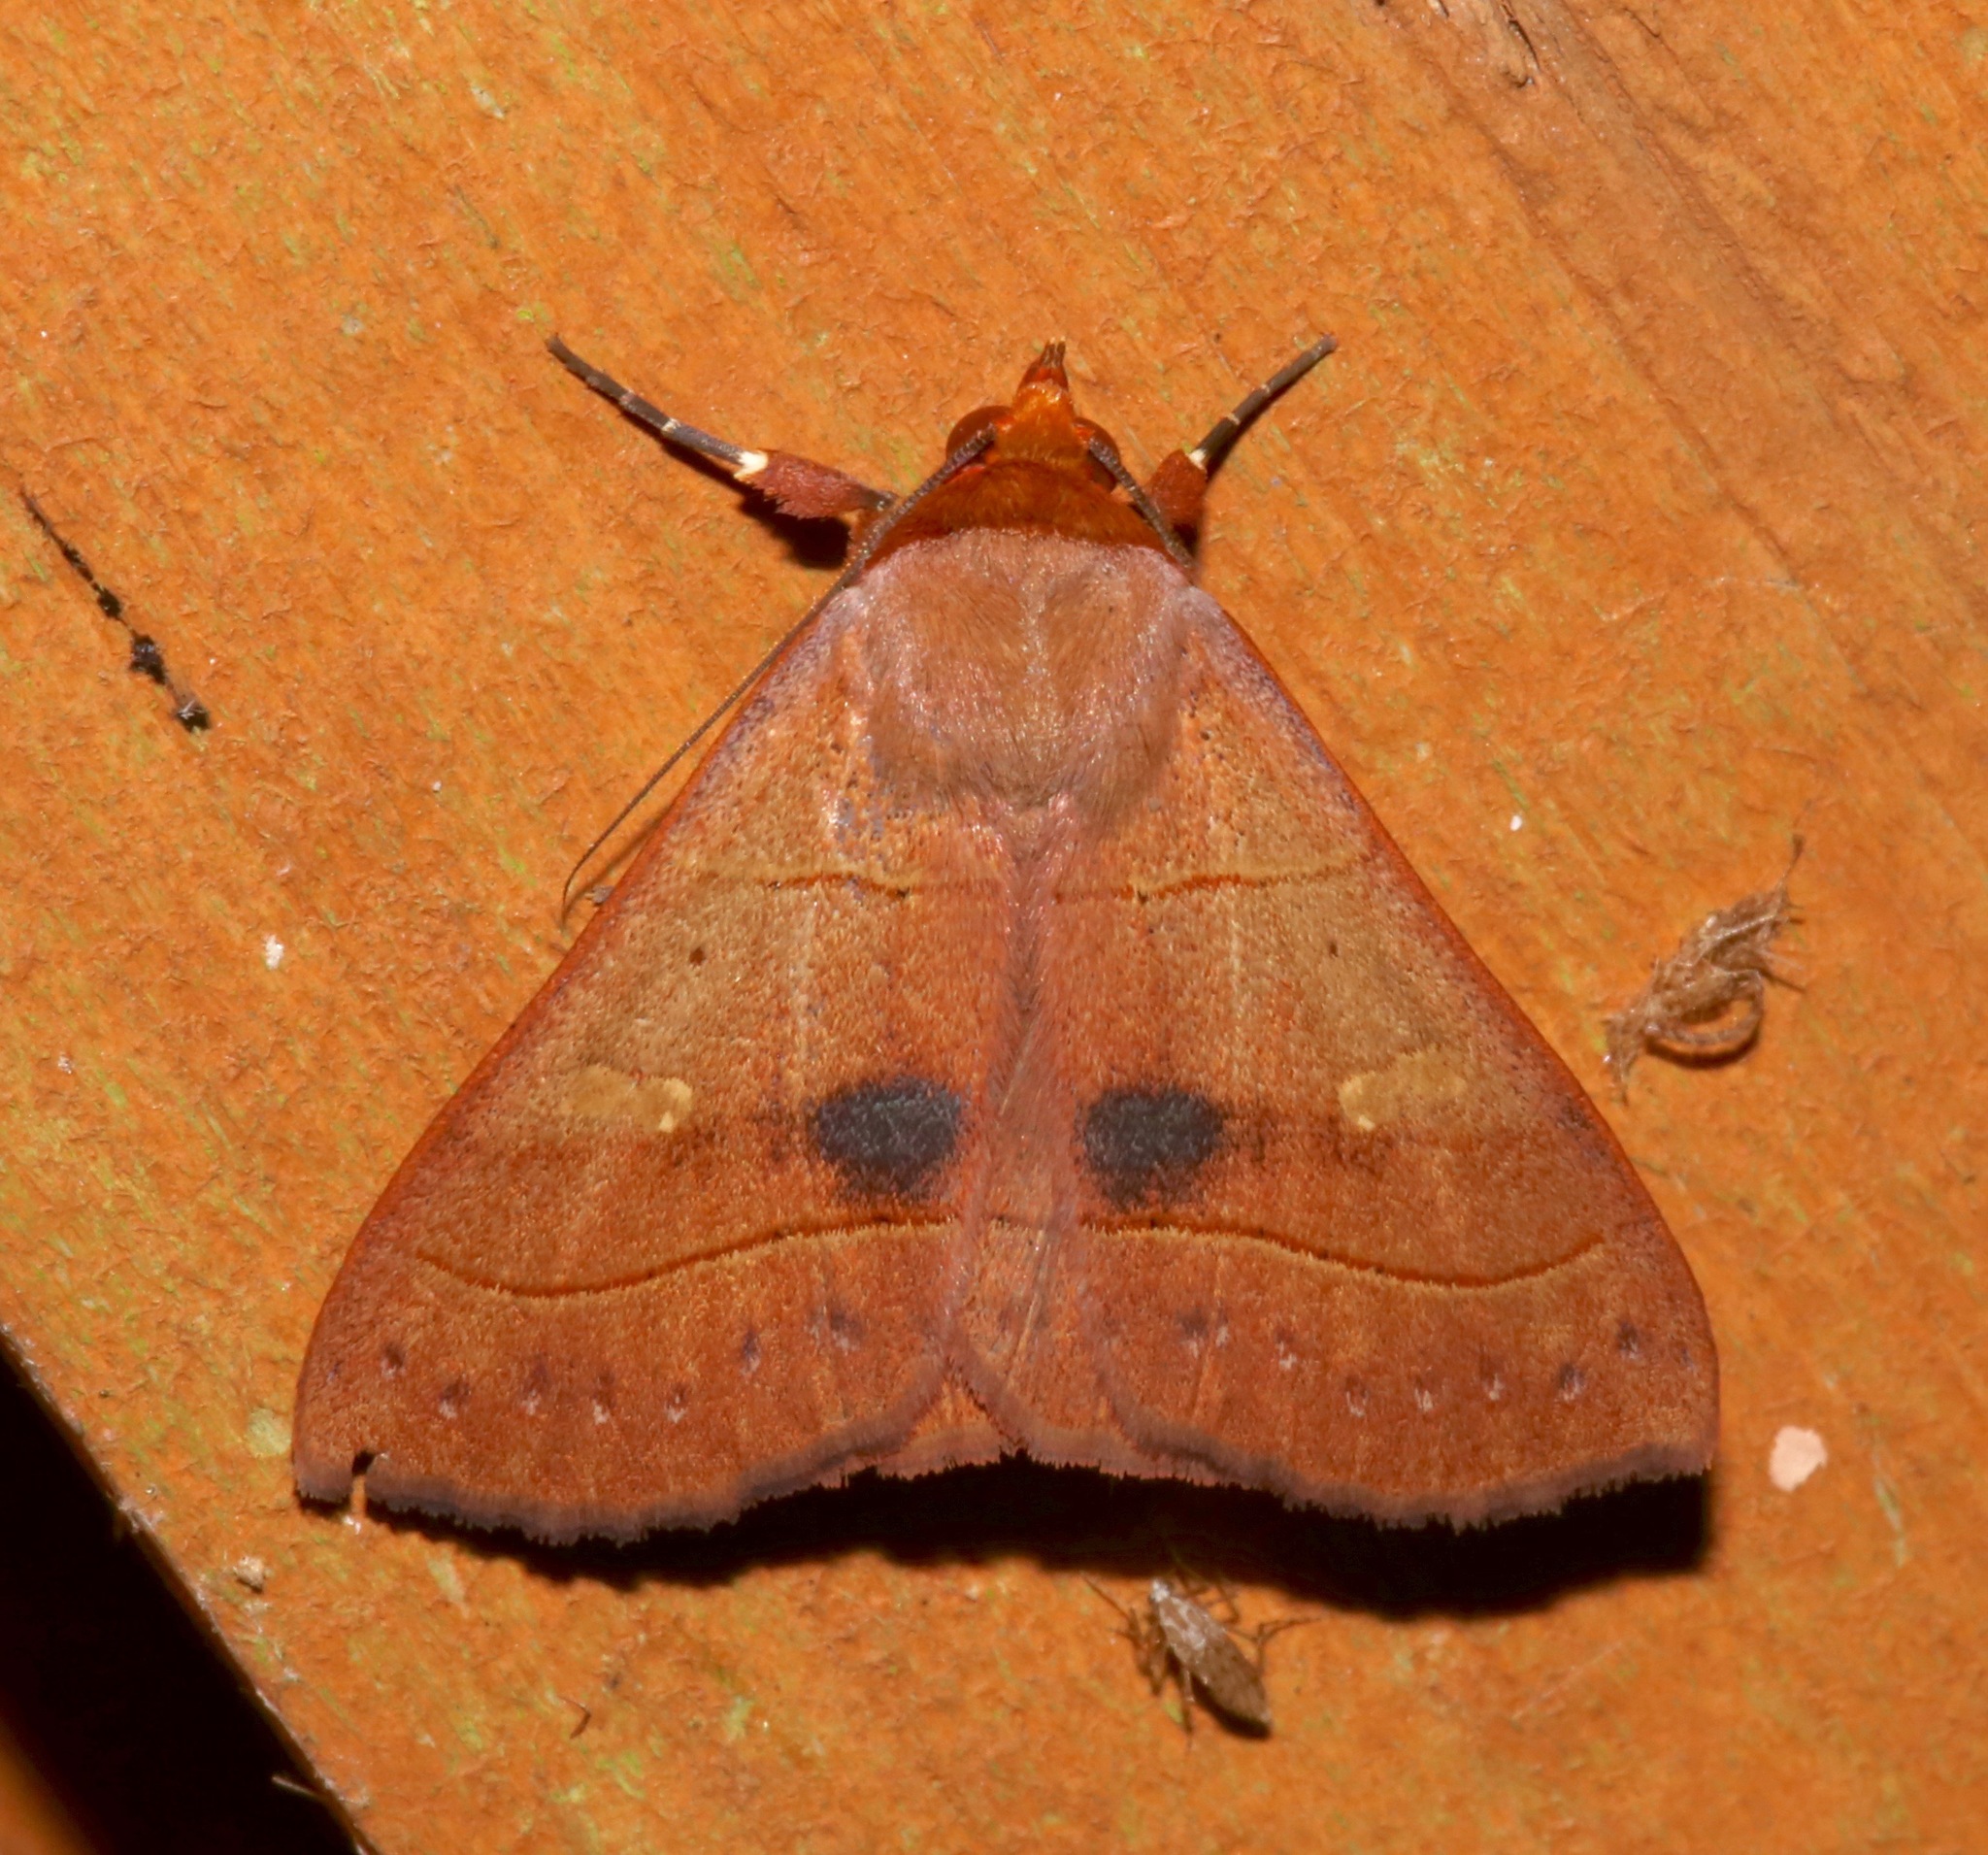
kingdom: Animalia
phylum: Arthropoda
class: Insecta
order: Lepidoptera
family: Erebidae
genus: Panopoda
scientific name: Panopoda rufimargo
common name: Red-lined panopoda moth
